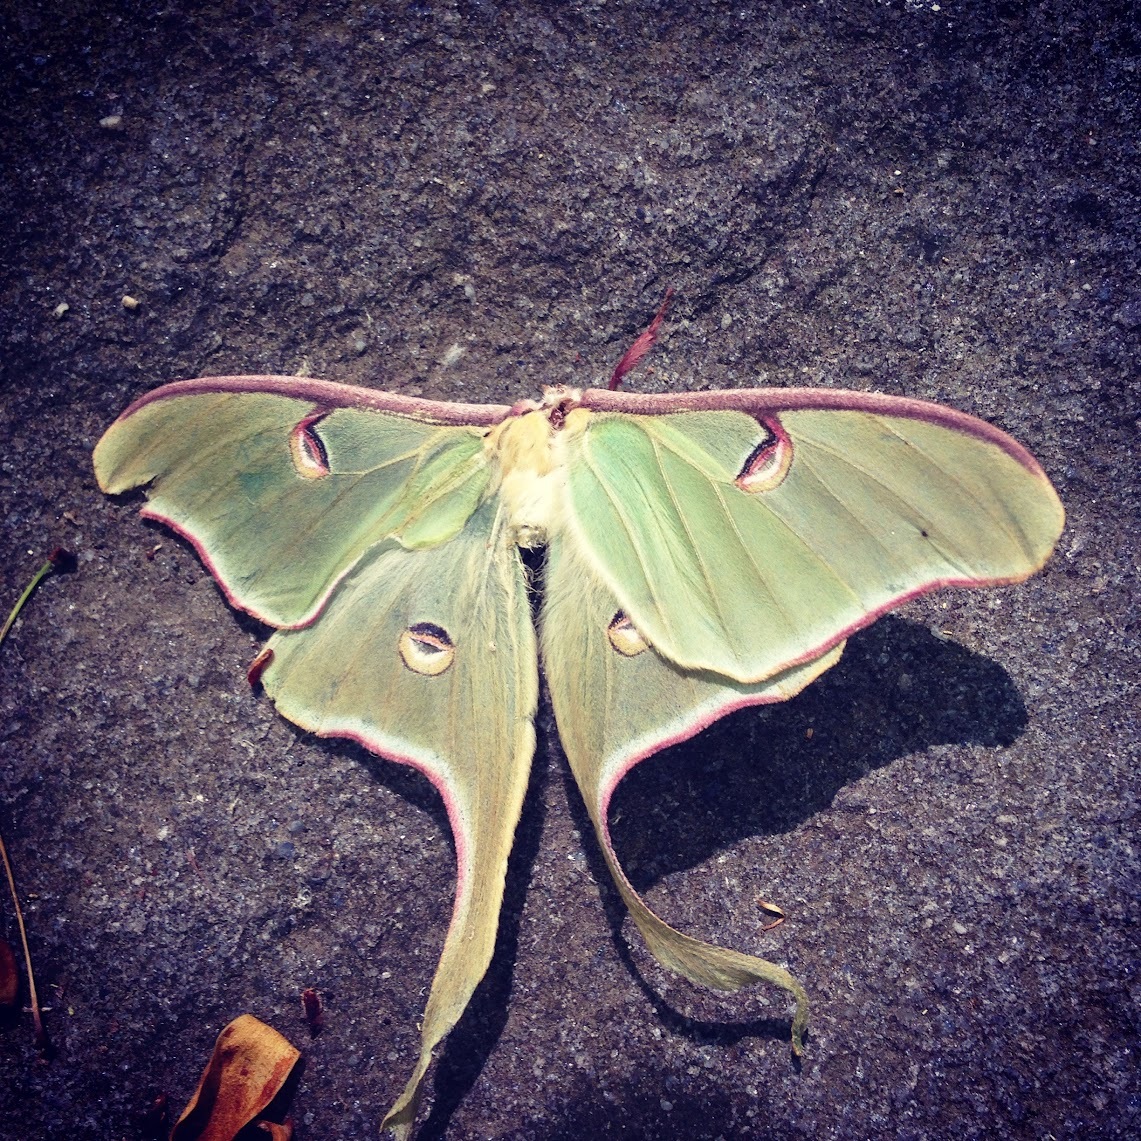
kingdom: Animalia
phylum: Arthropoda
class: Insecta
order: Lepidoptera
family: Saturniidae
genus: Actias
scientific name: Actias luna
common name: Luna moth
